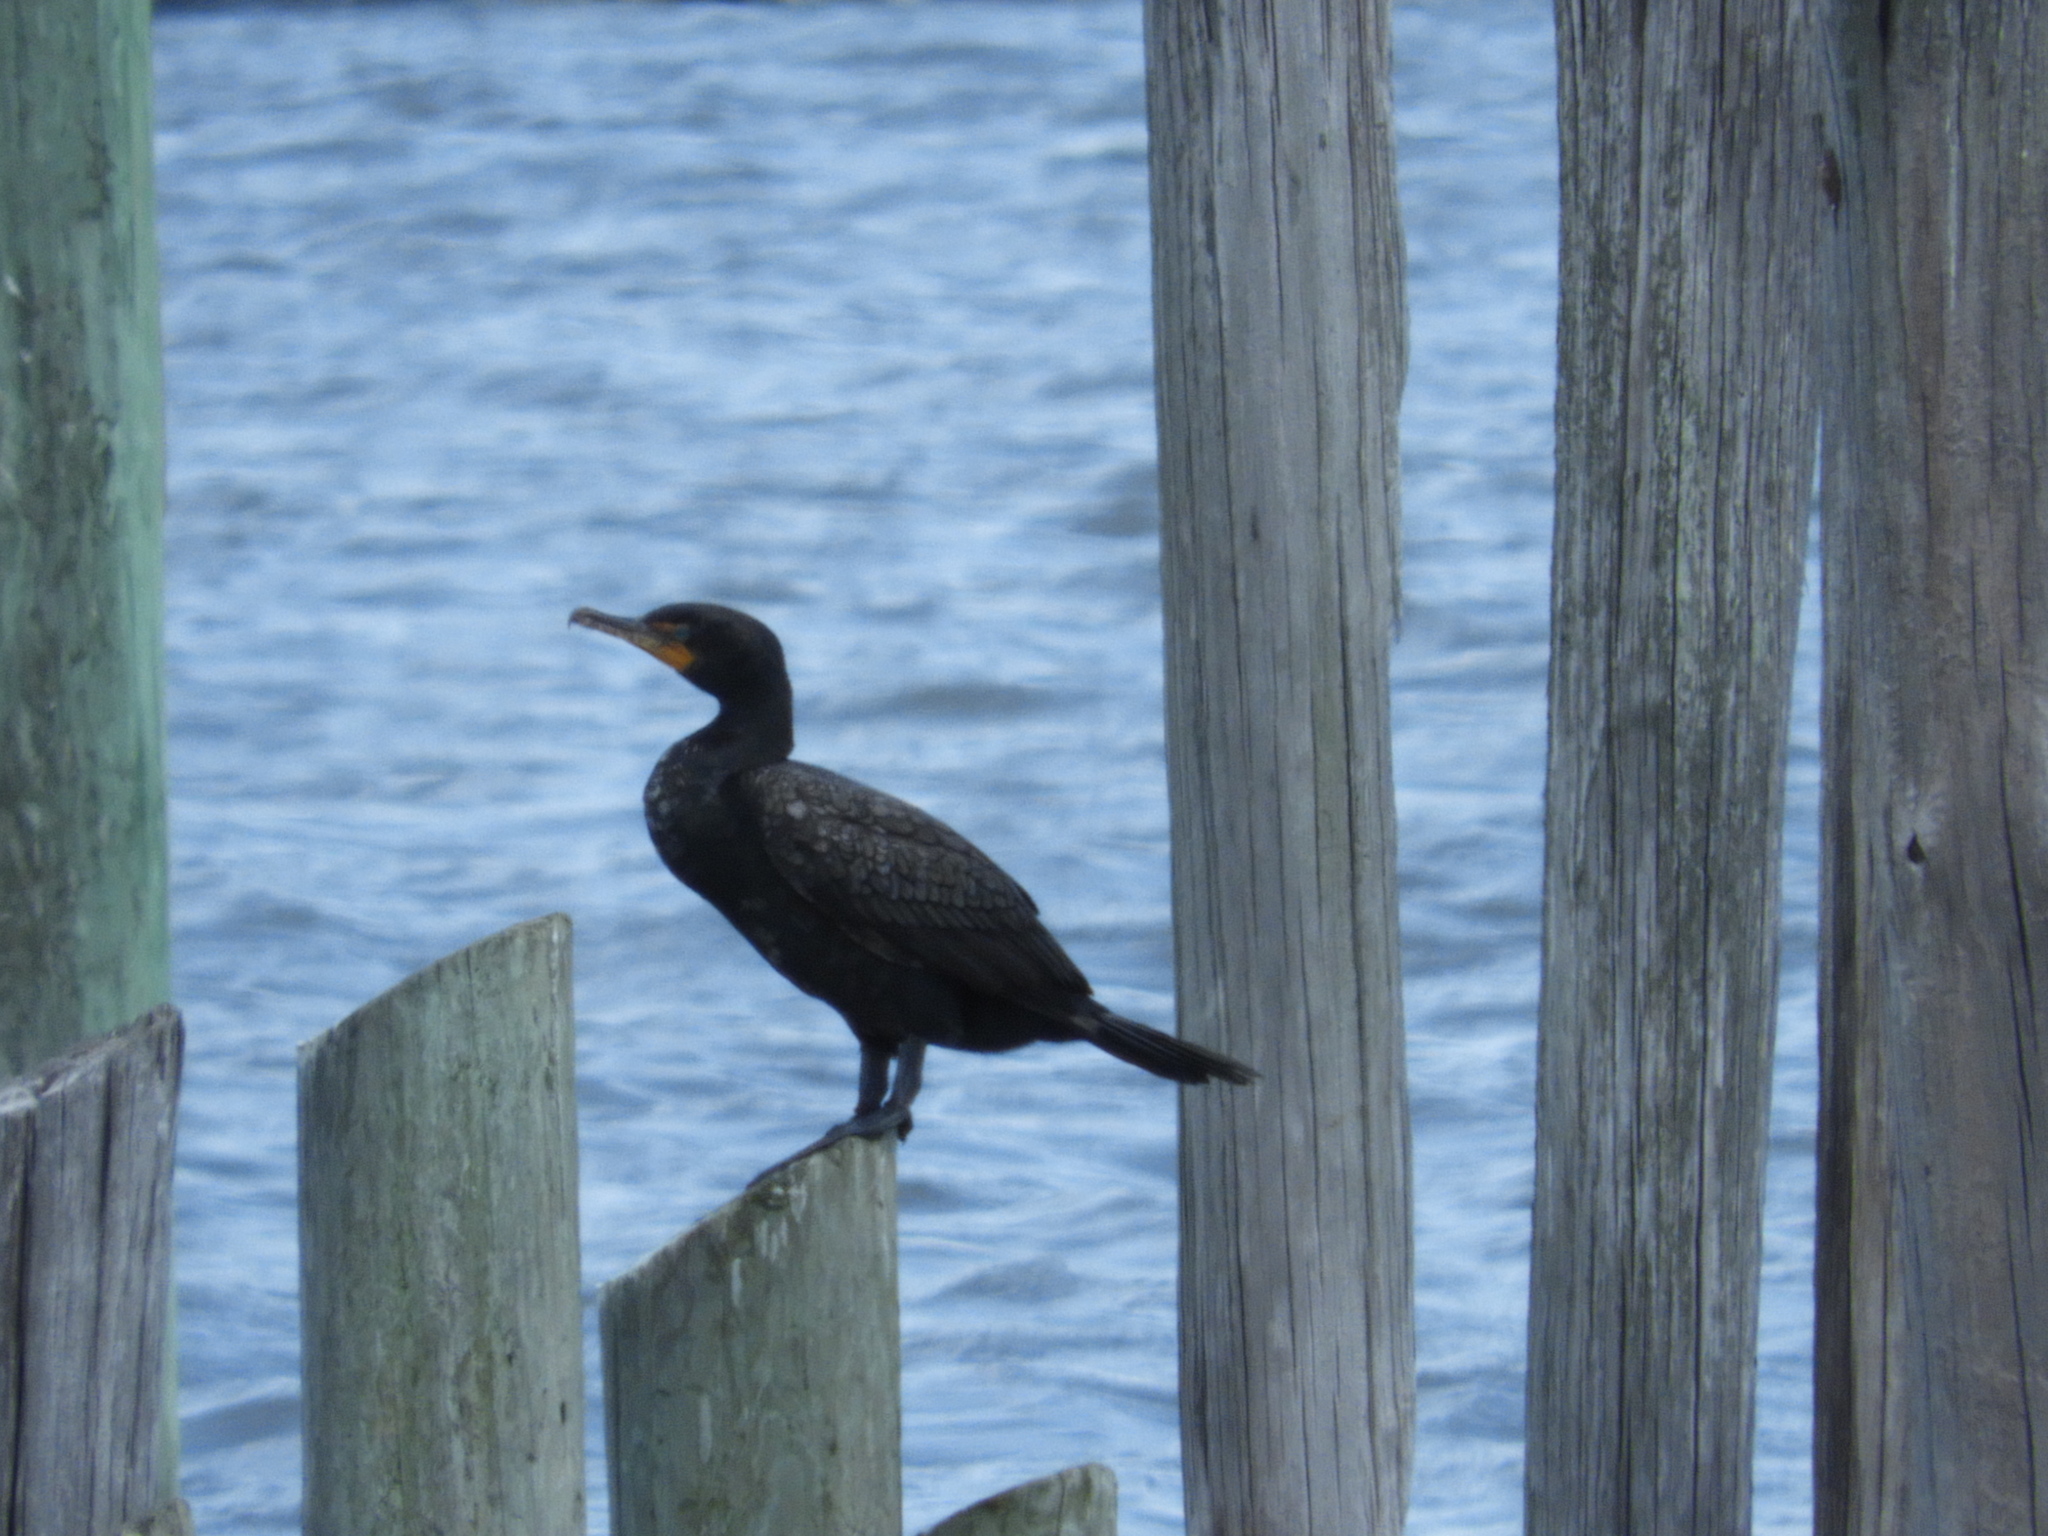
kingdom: Animalia
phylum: Chordata
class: Aves
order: Suliformes
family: Phalacrocoracidae
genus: Phalacrocorax
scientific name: Phalacrocorax auritus
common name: Double-crested cormorant
